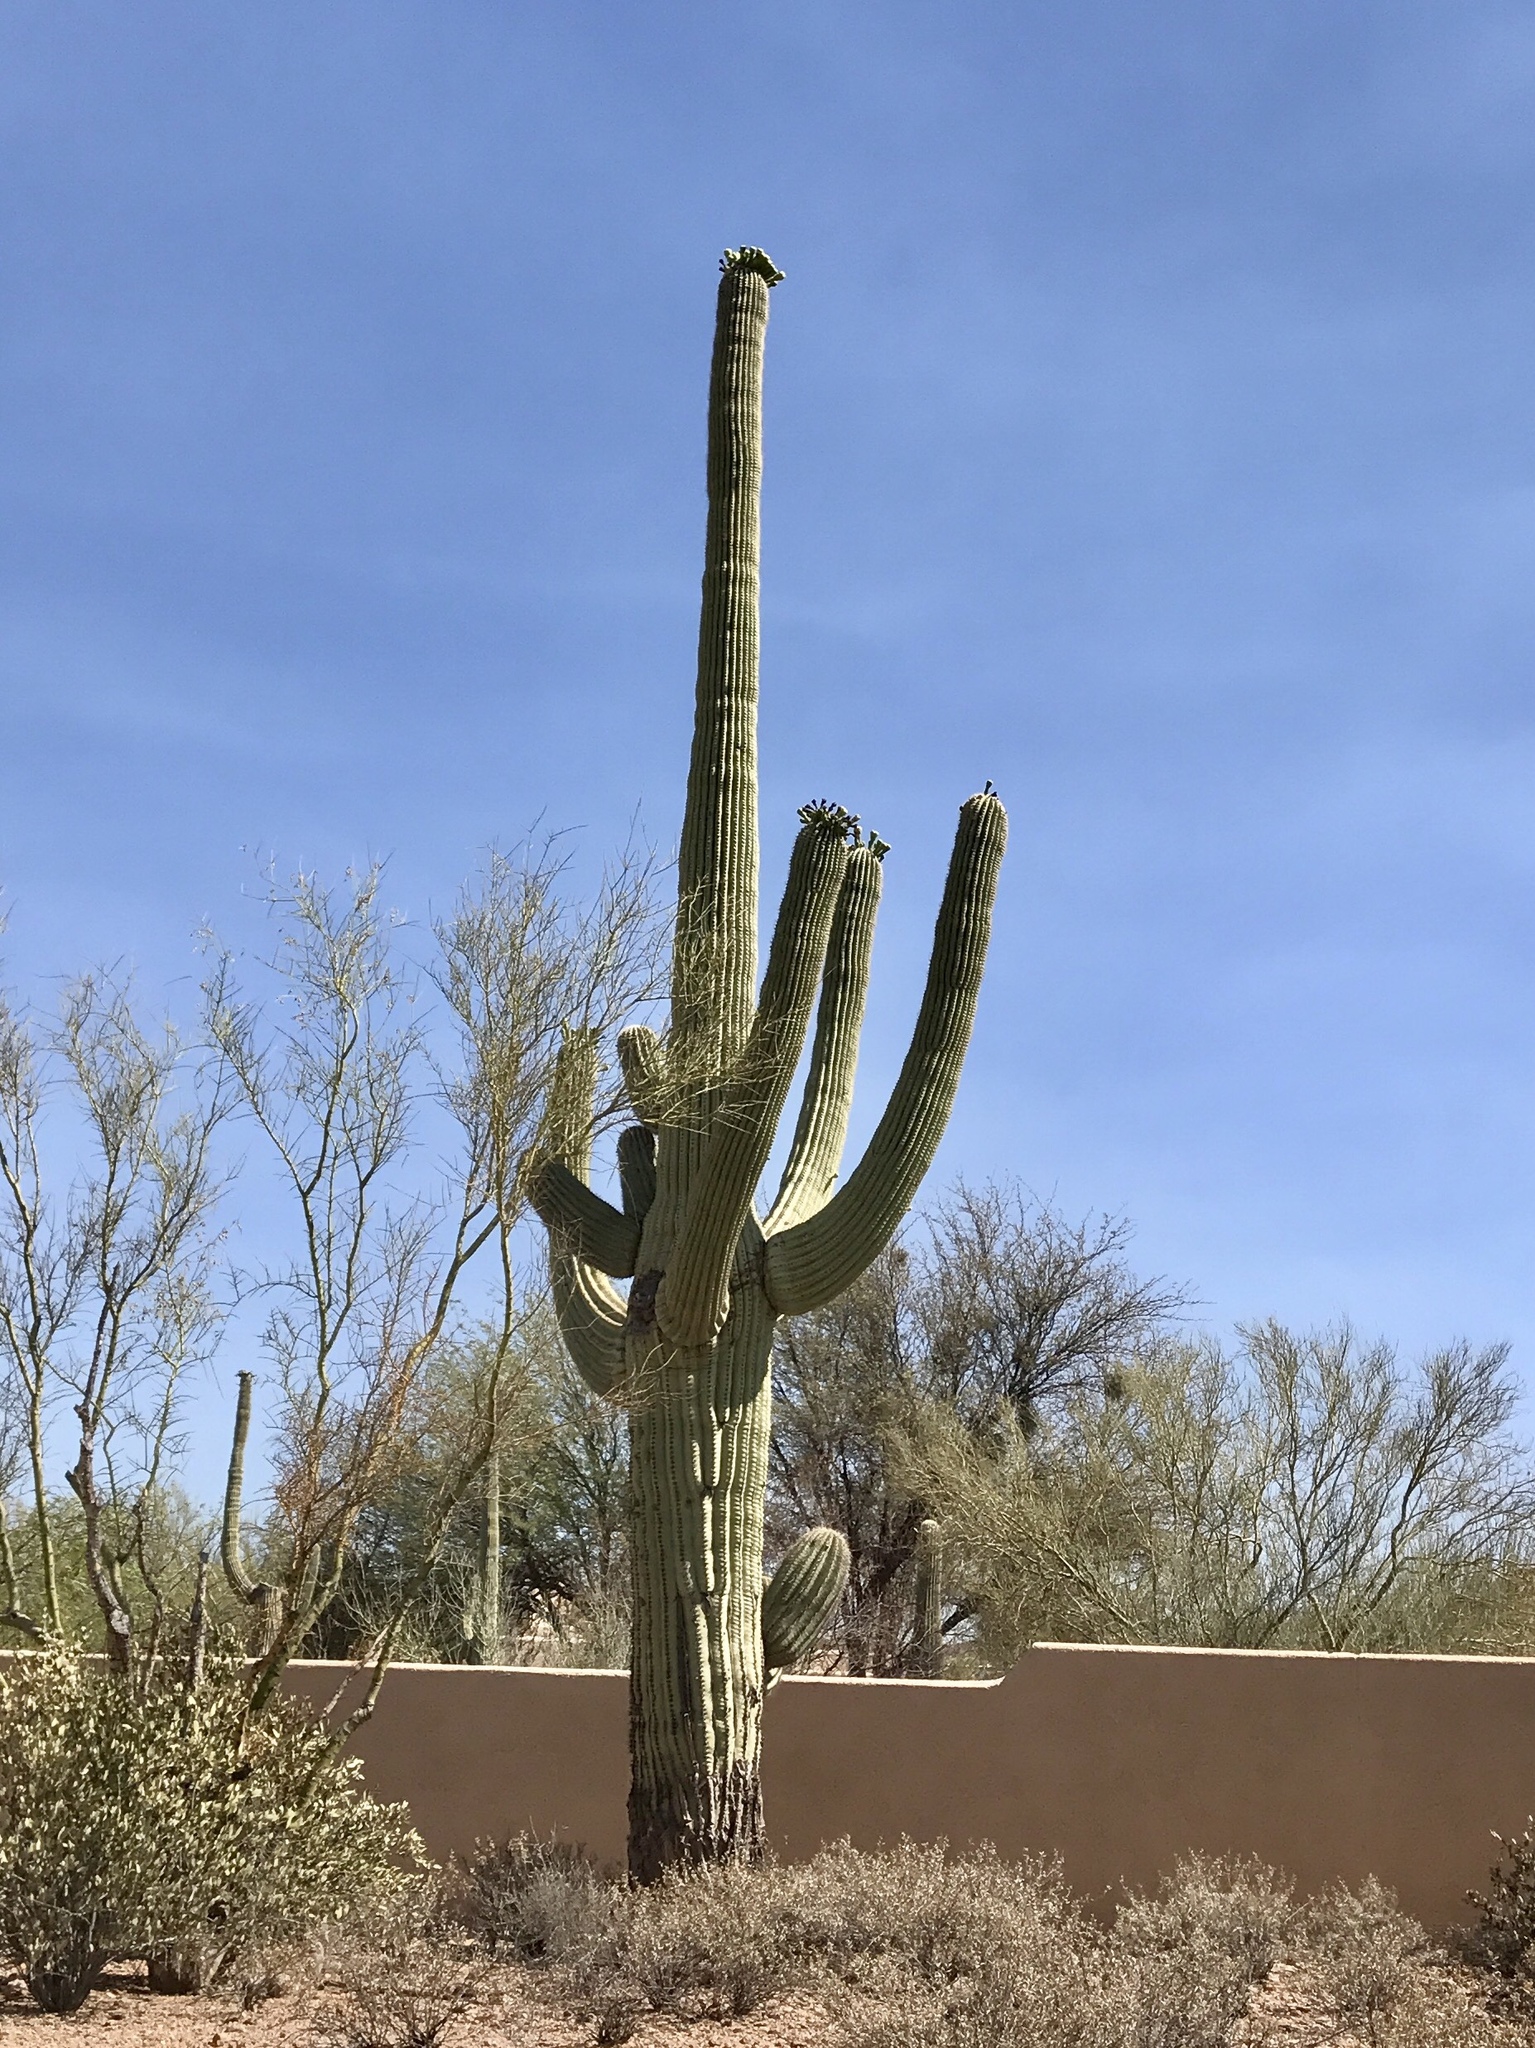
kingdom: Plantae
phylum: Tracheophyta
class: Magnoliopsida
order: Caryophyllales
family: Cactaceae
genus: Carnegiea
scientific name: Carnegiea gigantea
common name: Saguaro
